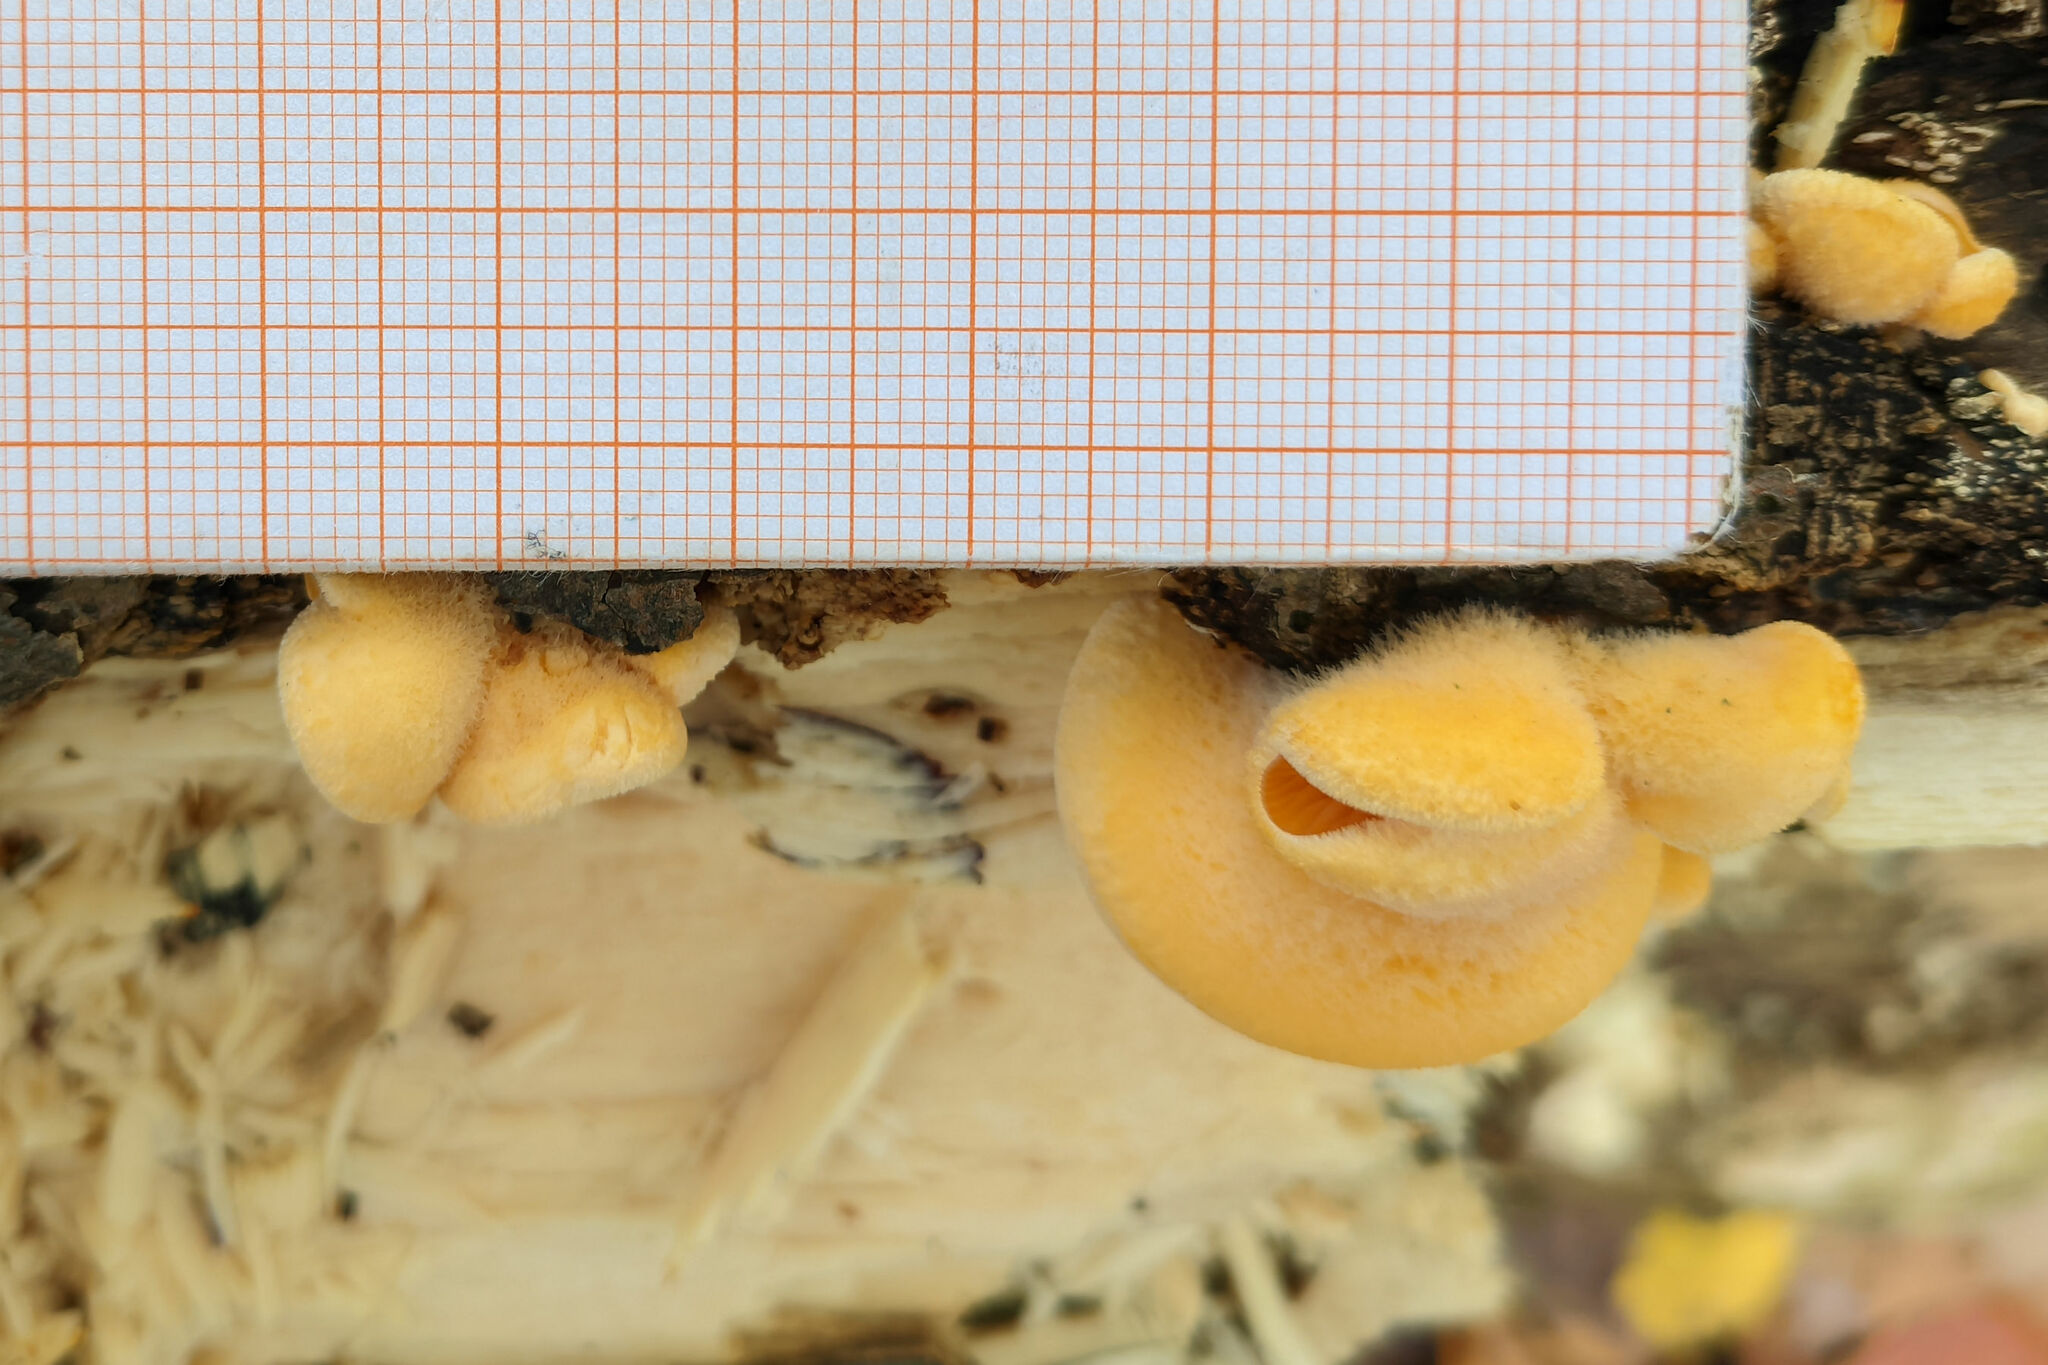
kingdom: Fungi
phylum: Basidiomycota
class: Agaricomycetes
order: Agaricales
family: Phyllotopsidaceae
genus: Phyllotopsis
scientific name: Phyllotopsis nidulans
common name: Orange mock oyster
